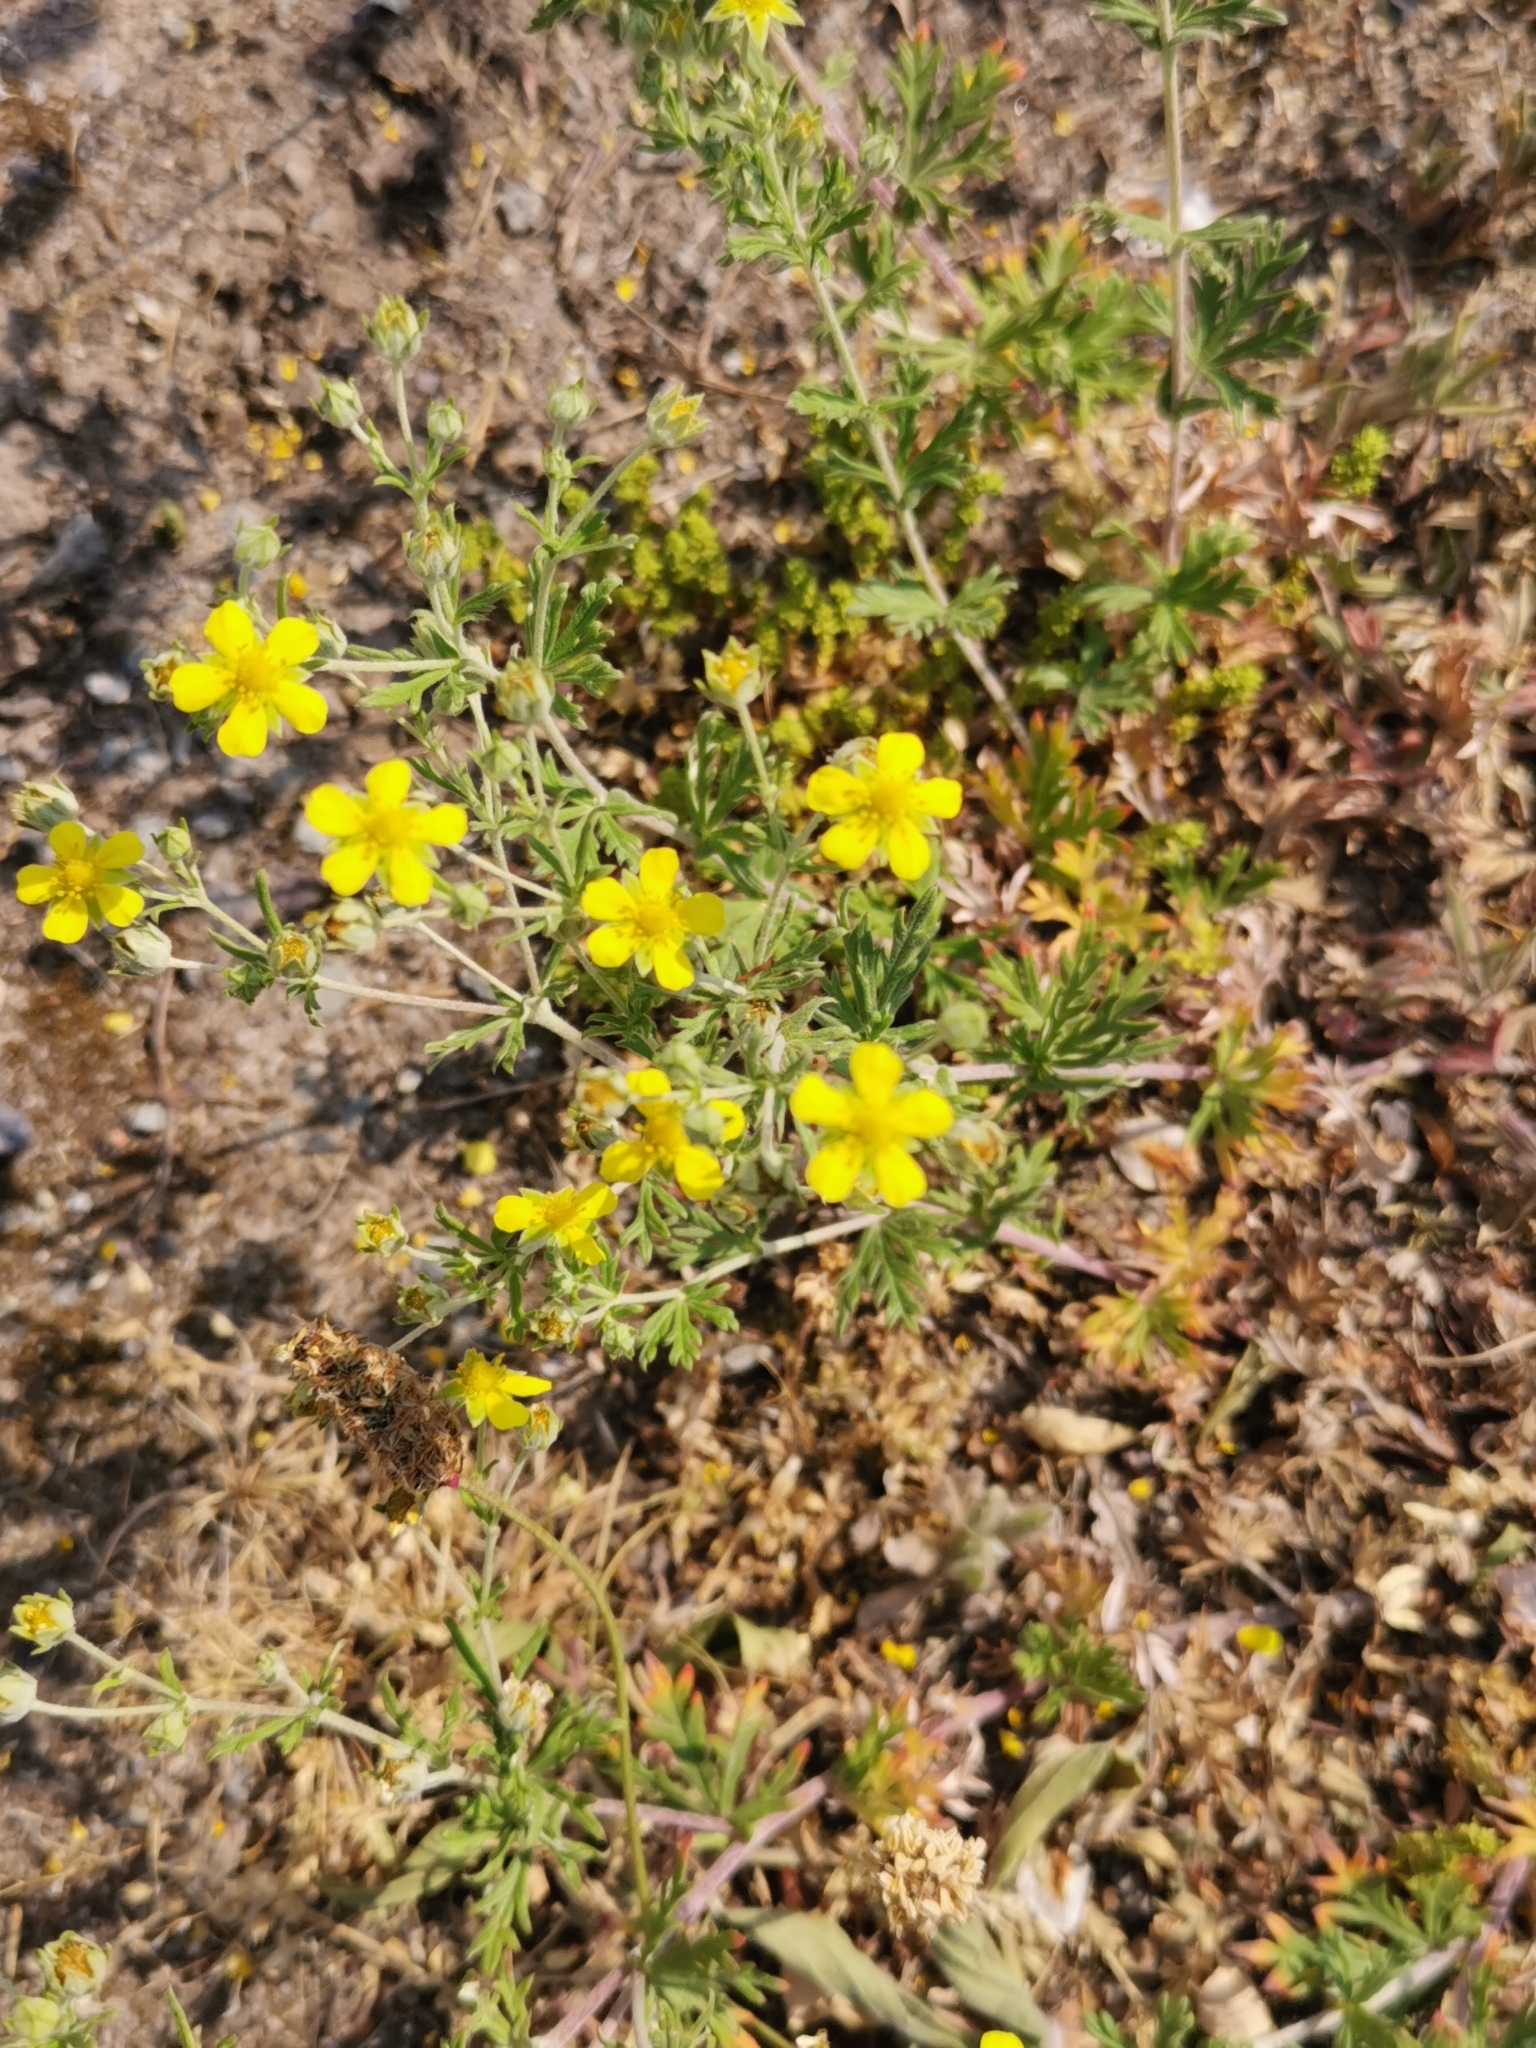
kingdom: Plantae
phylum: Tracheophyta
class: Magnoliopsida
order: Rosales
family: Rosaceae
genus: Potentilla
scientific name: Potentilla argentea
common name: Hoary cinquefoil
